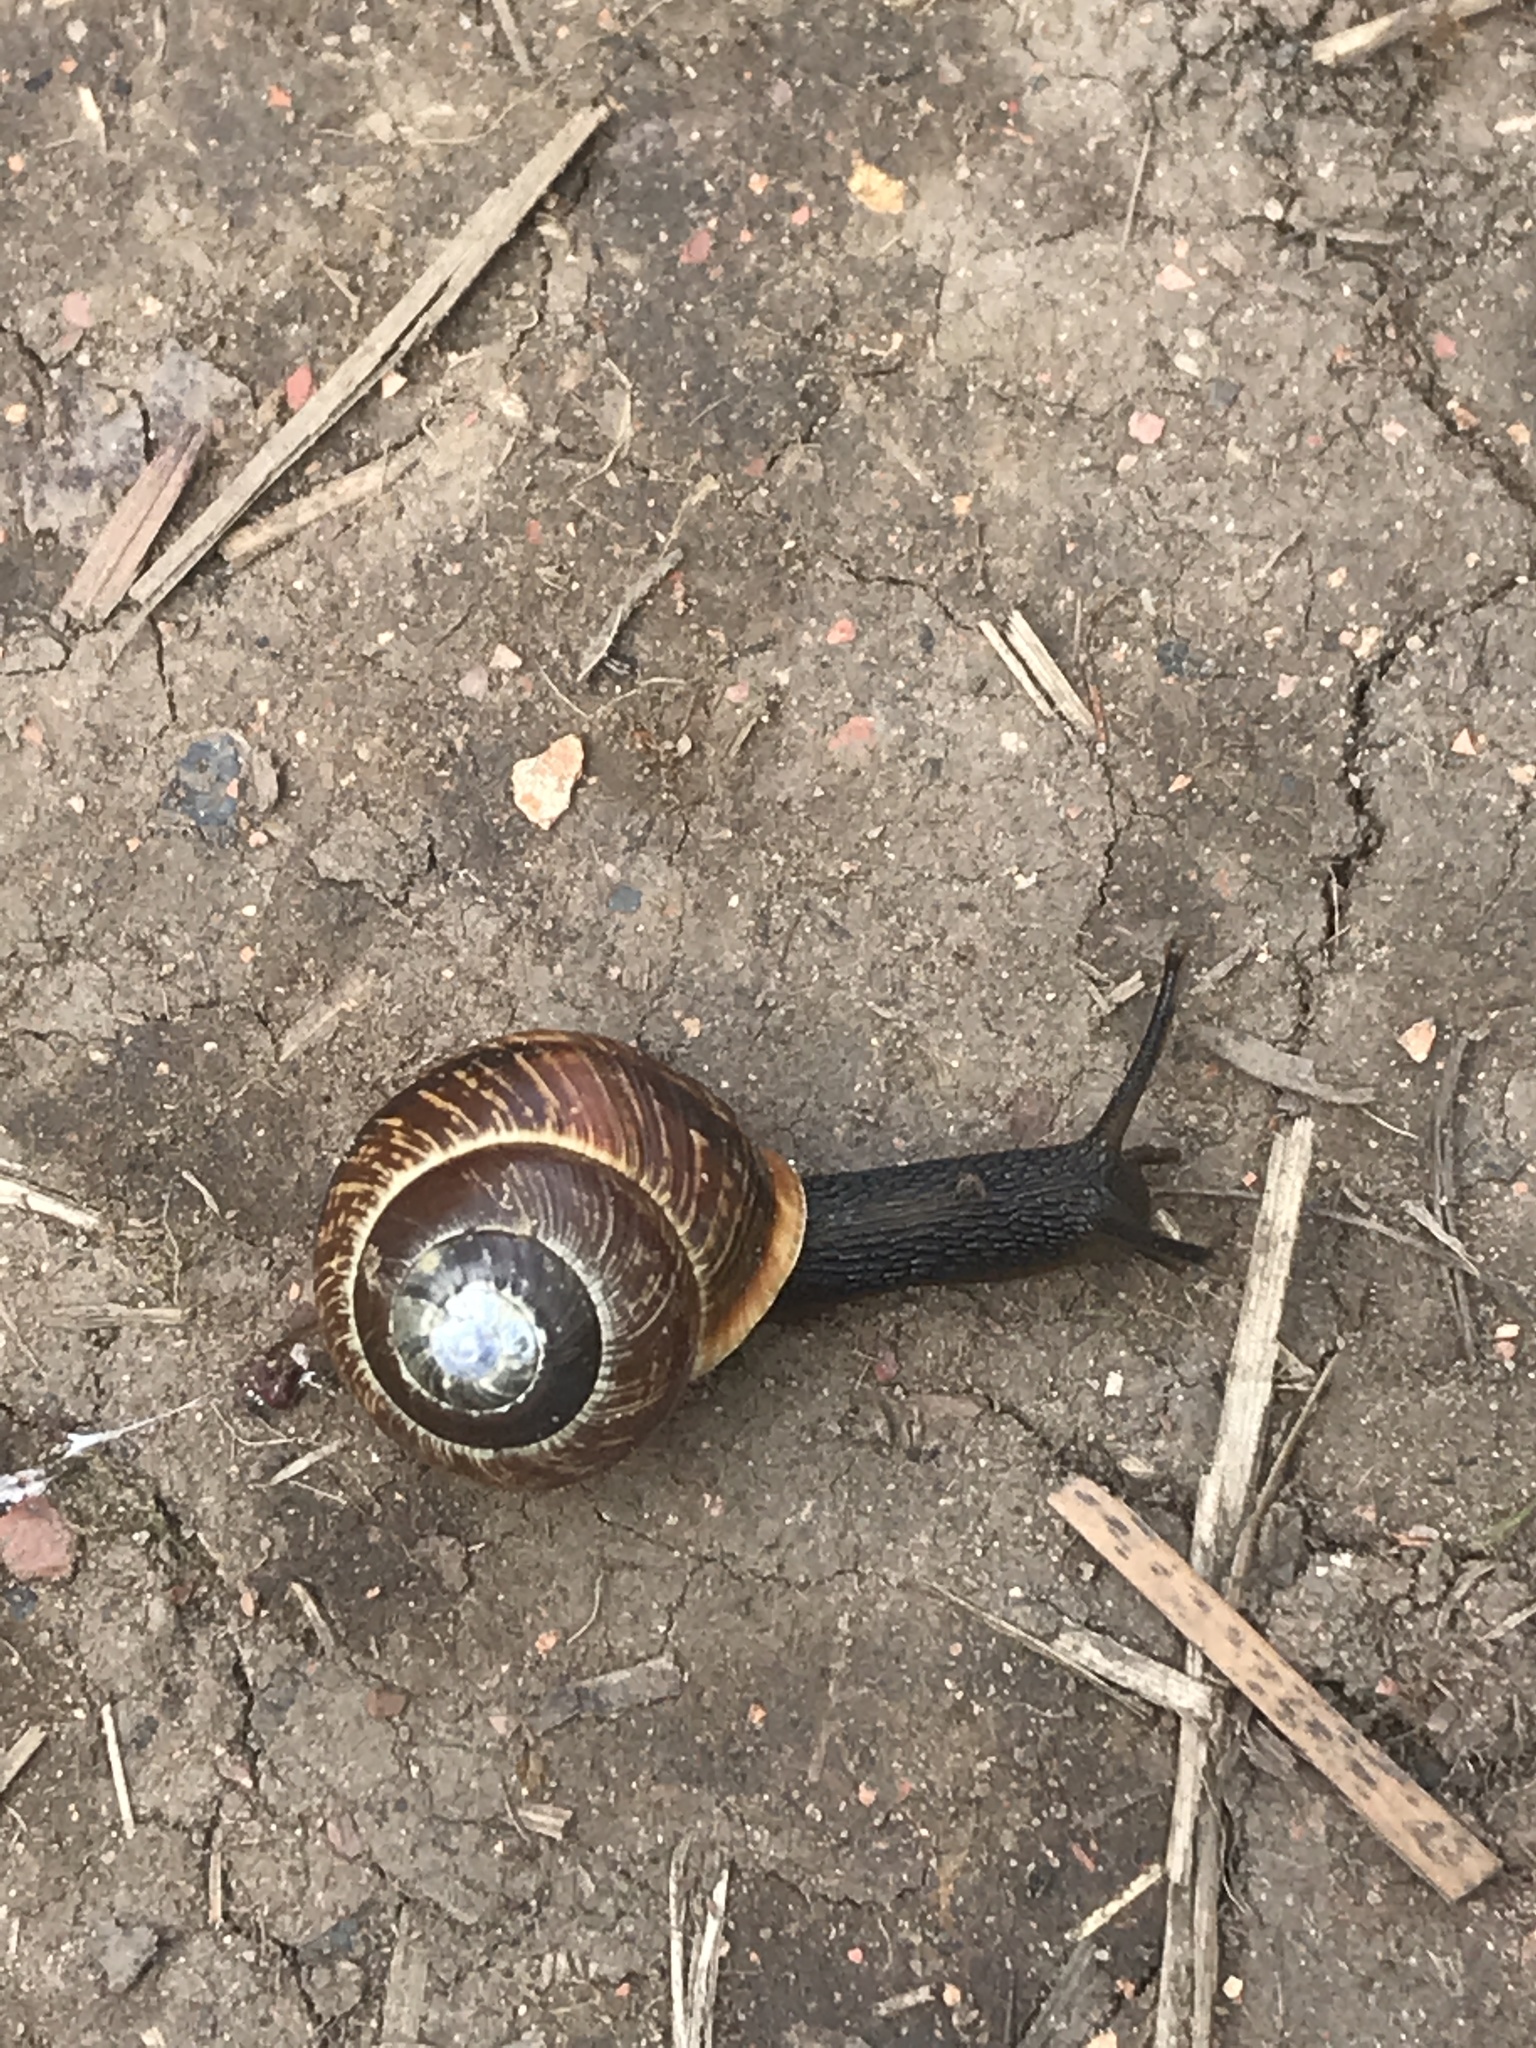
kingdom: Animalia
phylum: Mollusca
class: Gastropoda
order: Stylommatophora
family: Helicidae
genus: Arianta
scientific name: Arianta arbustorum
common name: Copse snail
